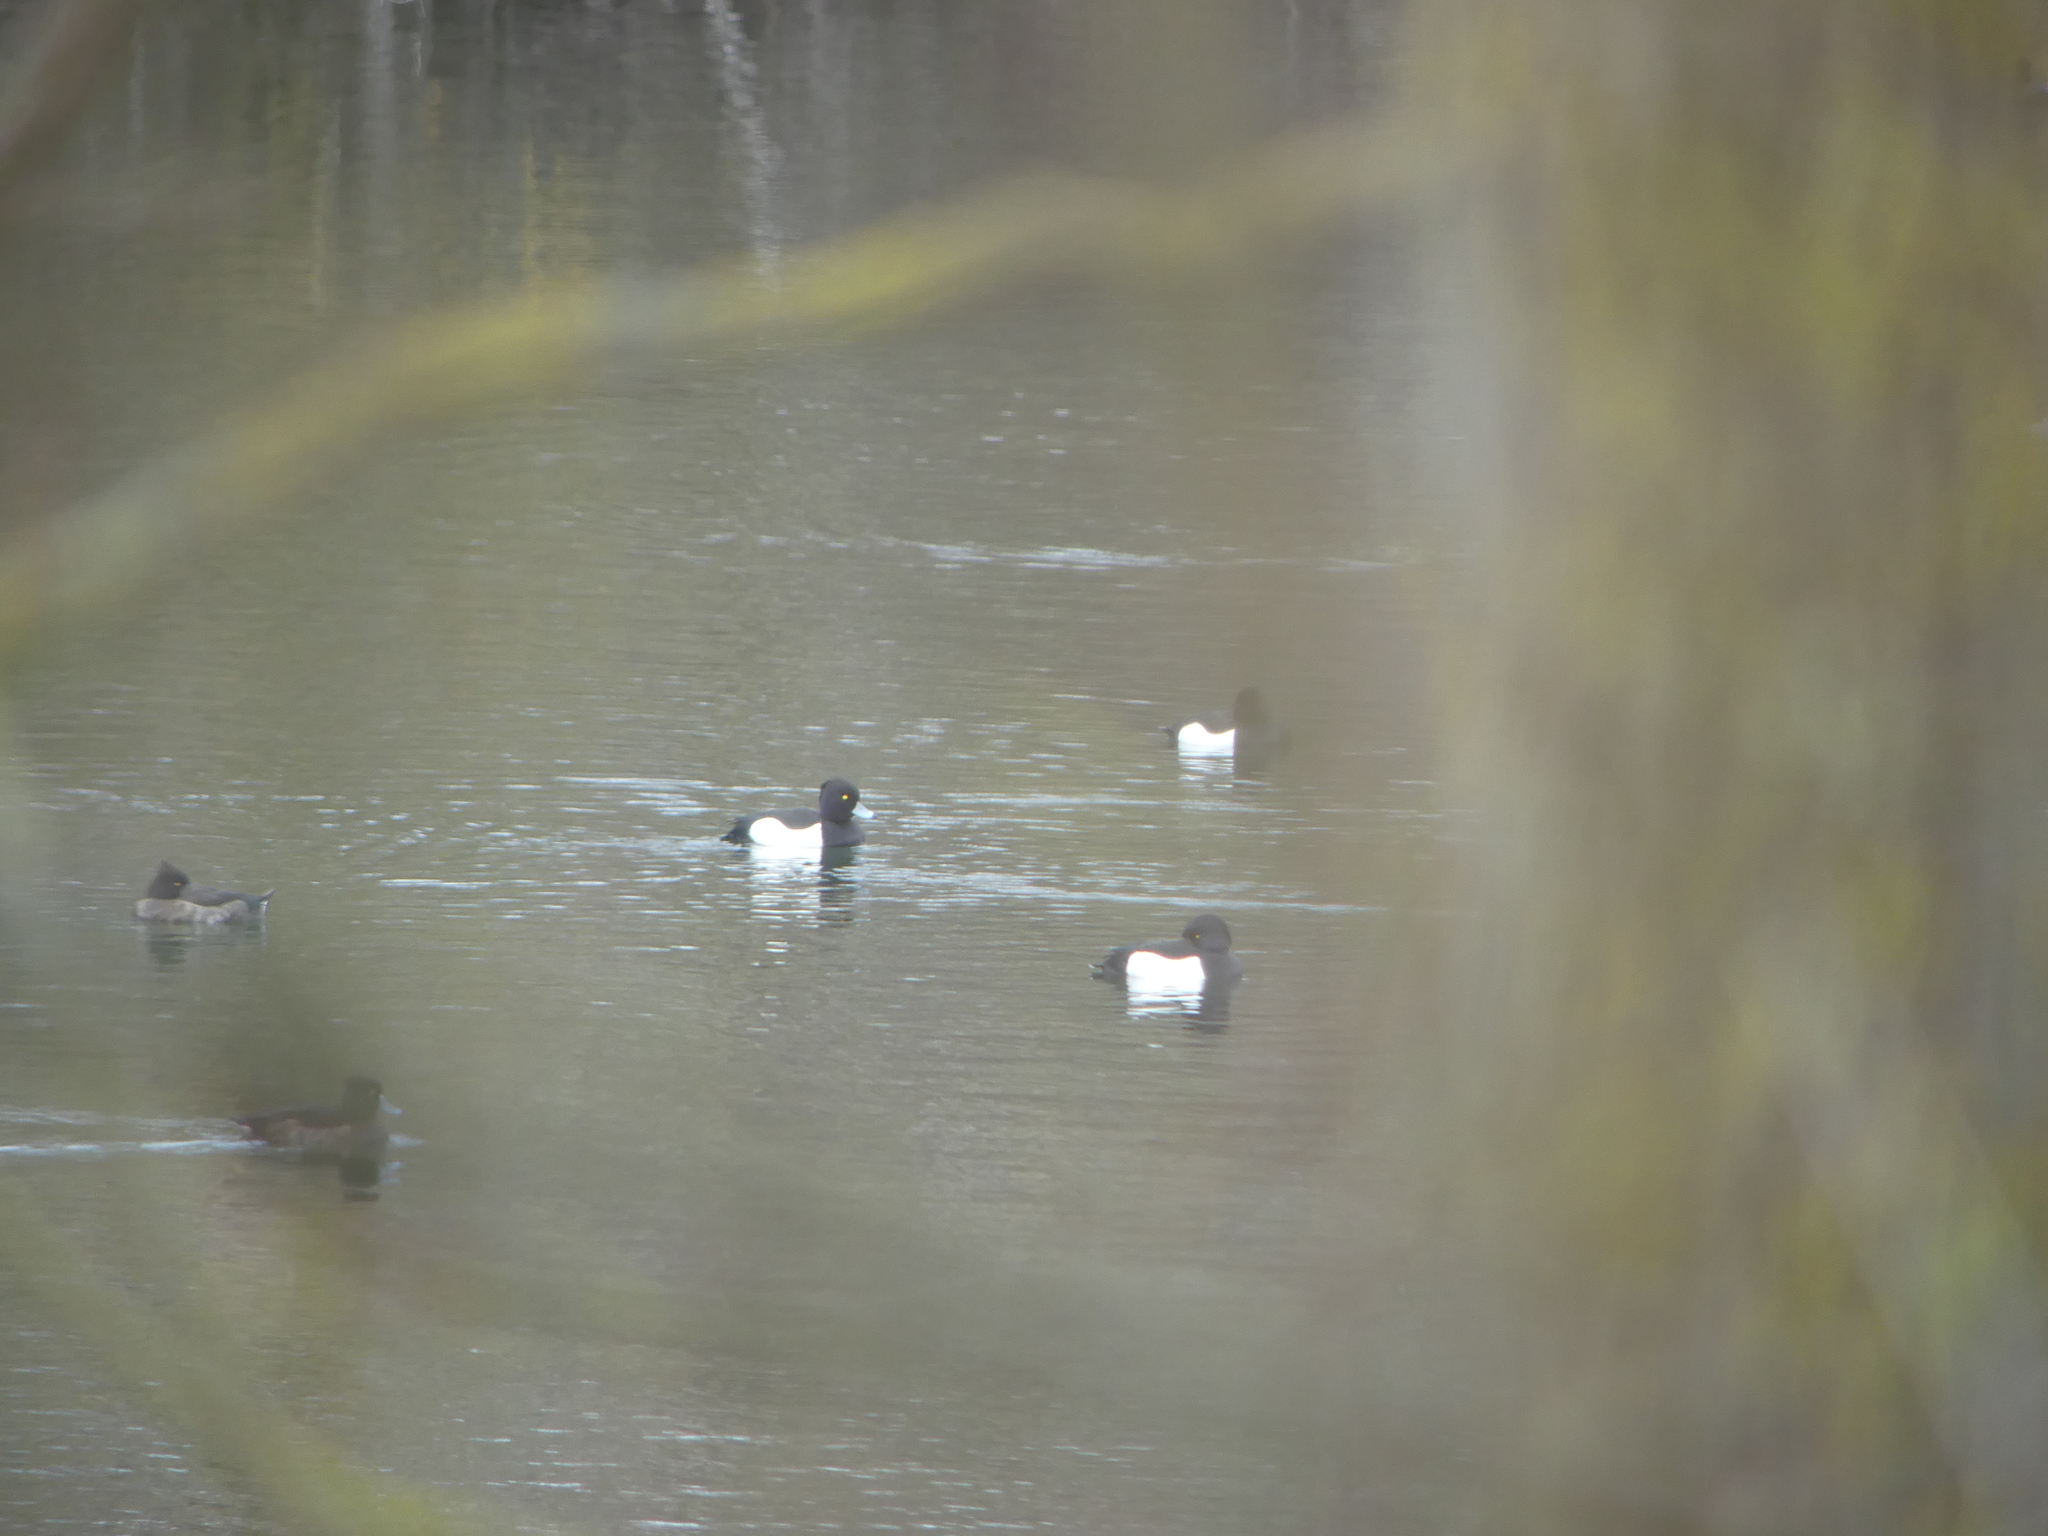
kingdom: Animalia
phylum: Chordata
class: Aves
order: Anseriformes
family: Anatidae
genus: Aythya
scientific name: Aythya fuligula
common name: Tufted duck
